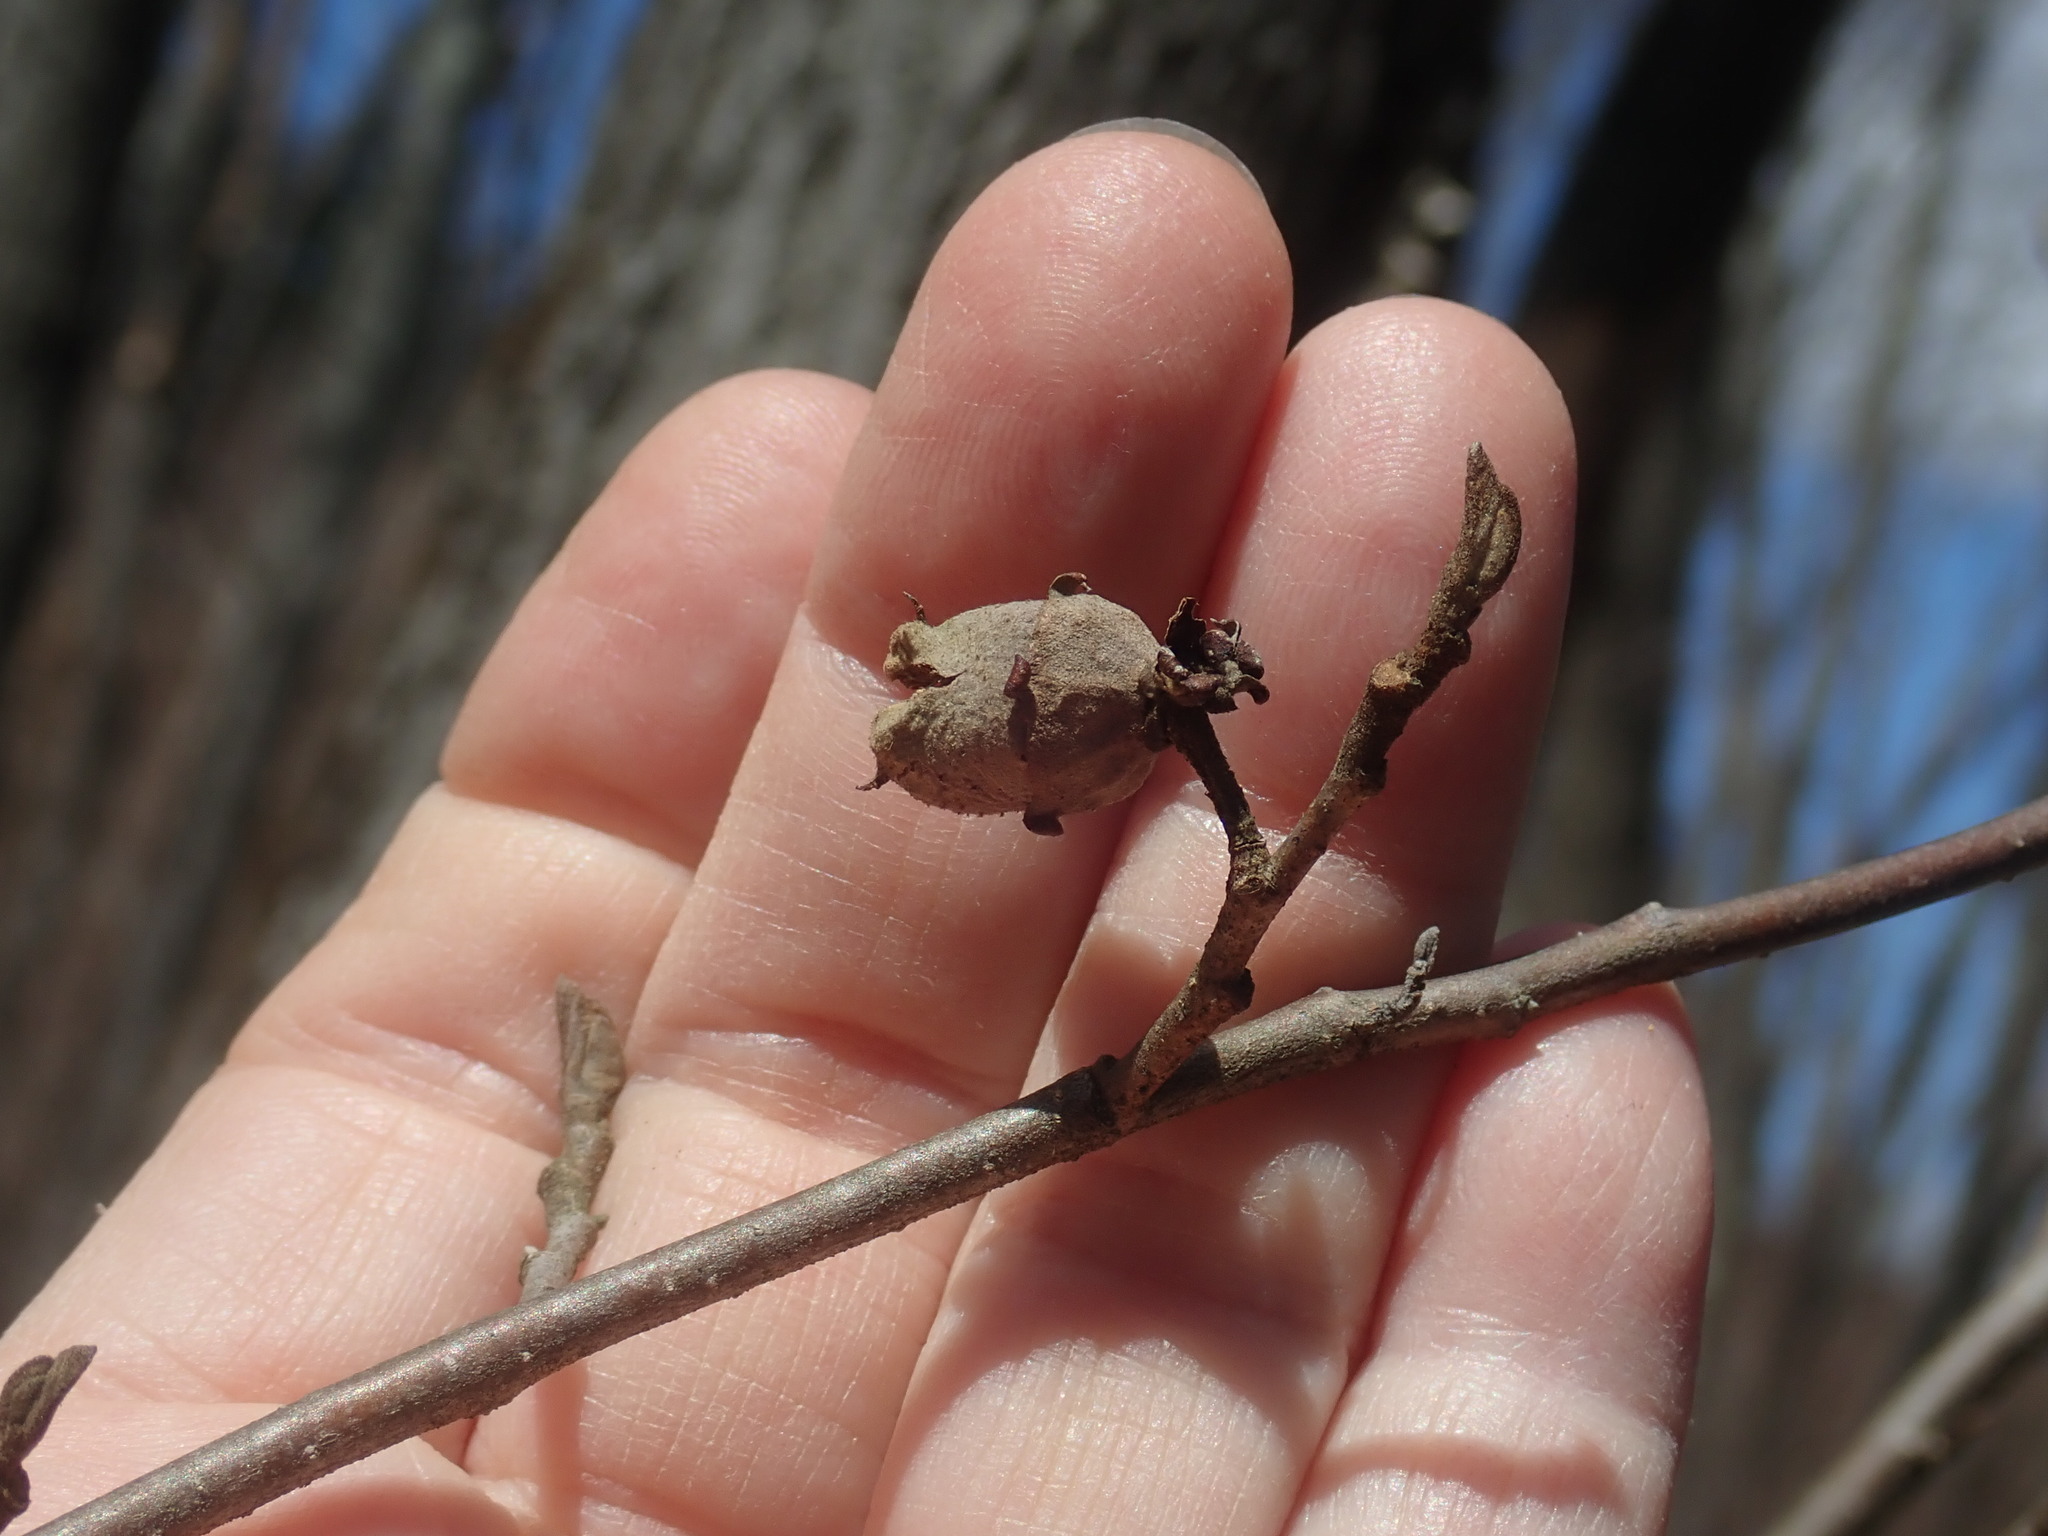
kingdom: Plantae
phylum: Tracheophyta
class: Magnoliopsida
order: Saxifragales
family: Hamamelidaceae
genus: Hamamelis
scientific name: Hamamelis virginiana
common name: Witch-hazel
